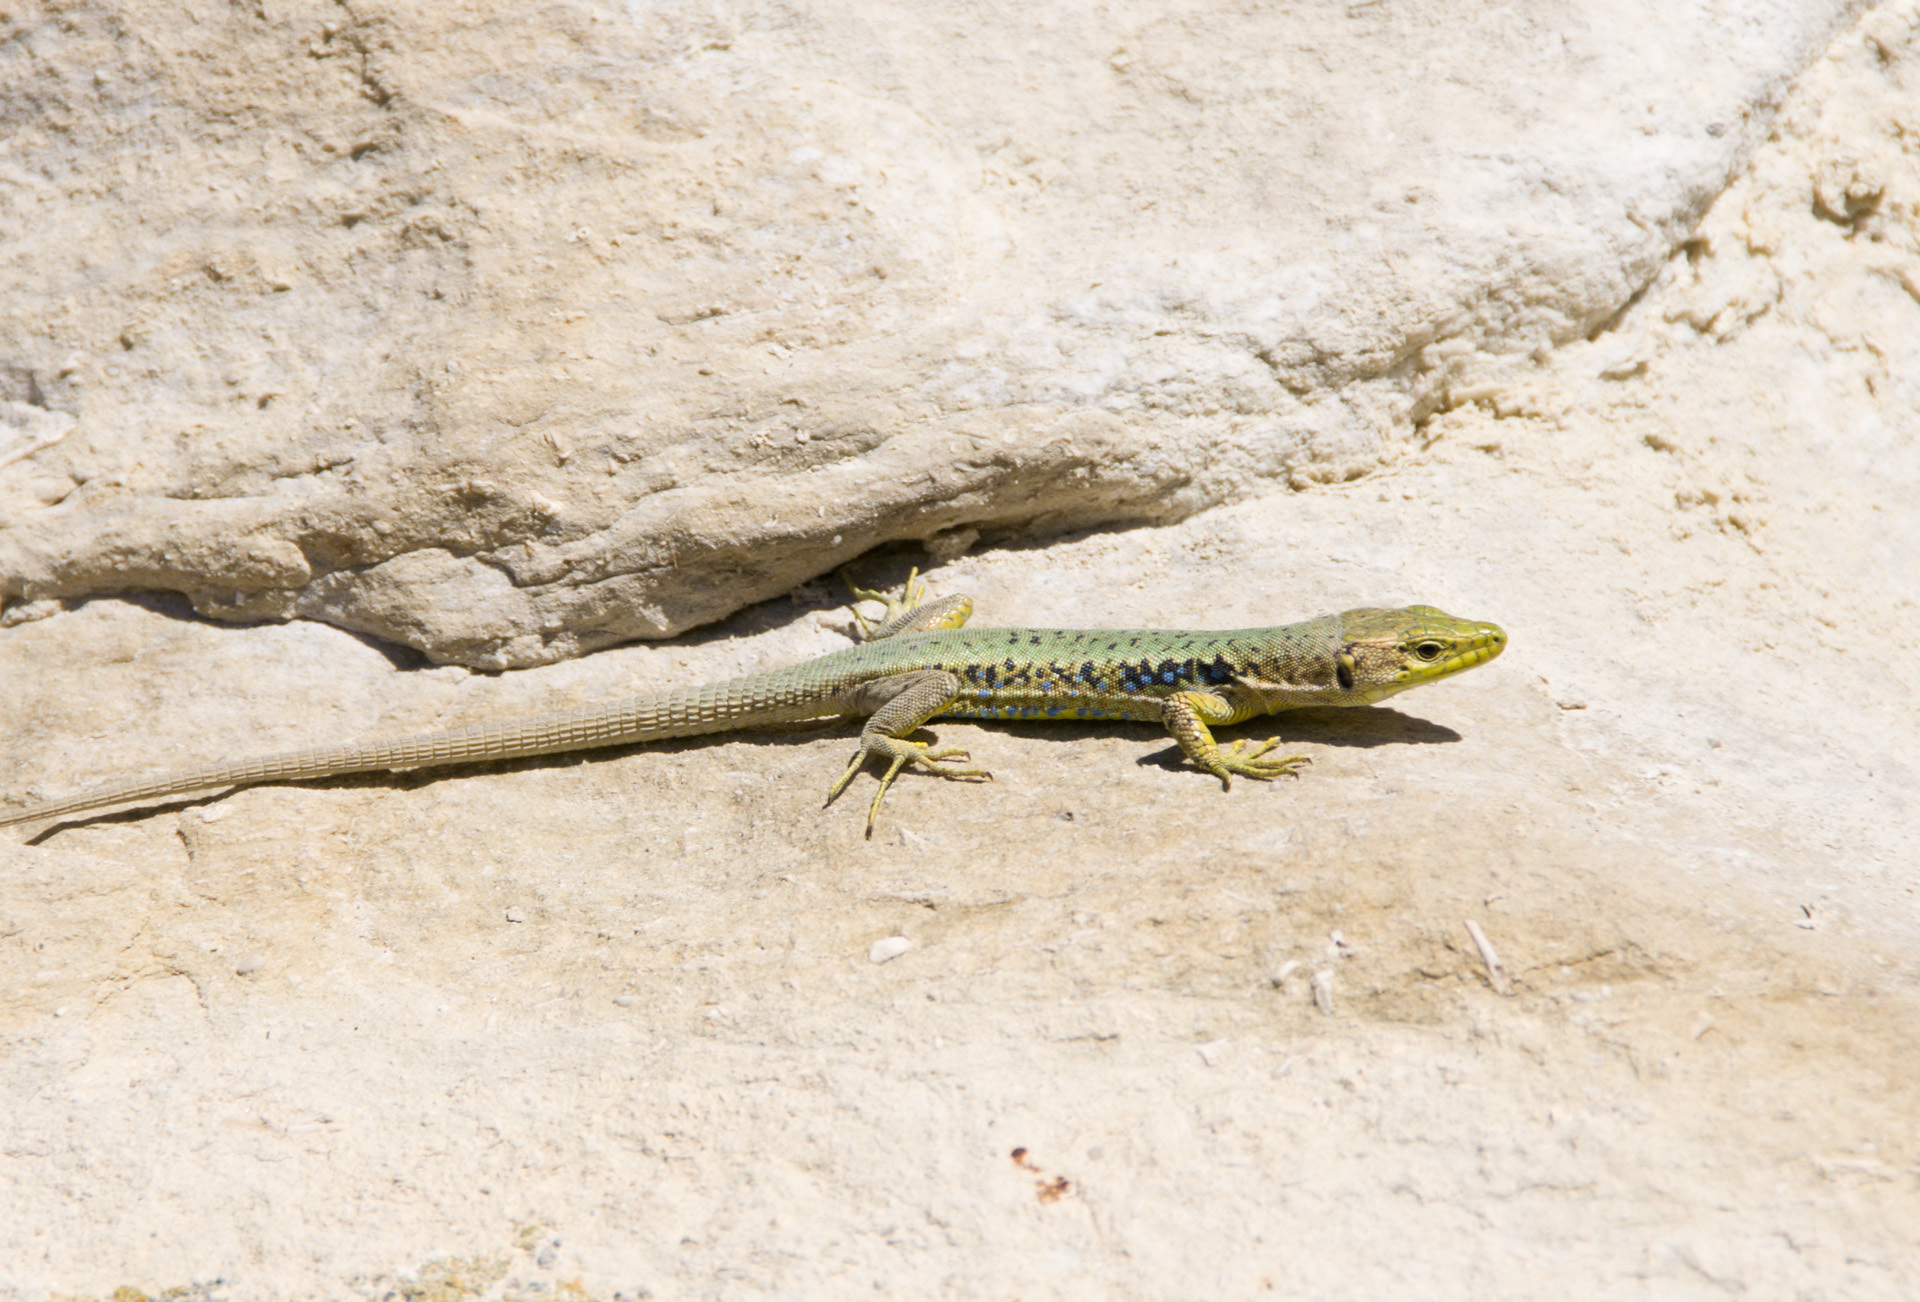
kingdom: Animalia
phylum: Chordata
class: Squamata
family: Lacertidae
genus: Darevskia
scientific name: Darevskia lindholmi
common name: Crimean rock lizard
